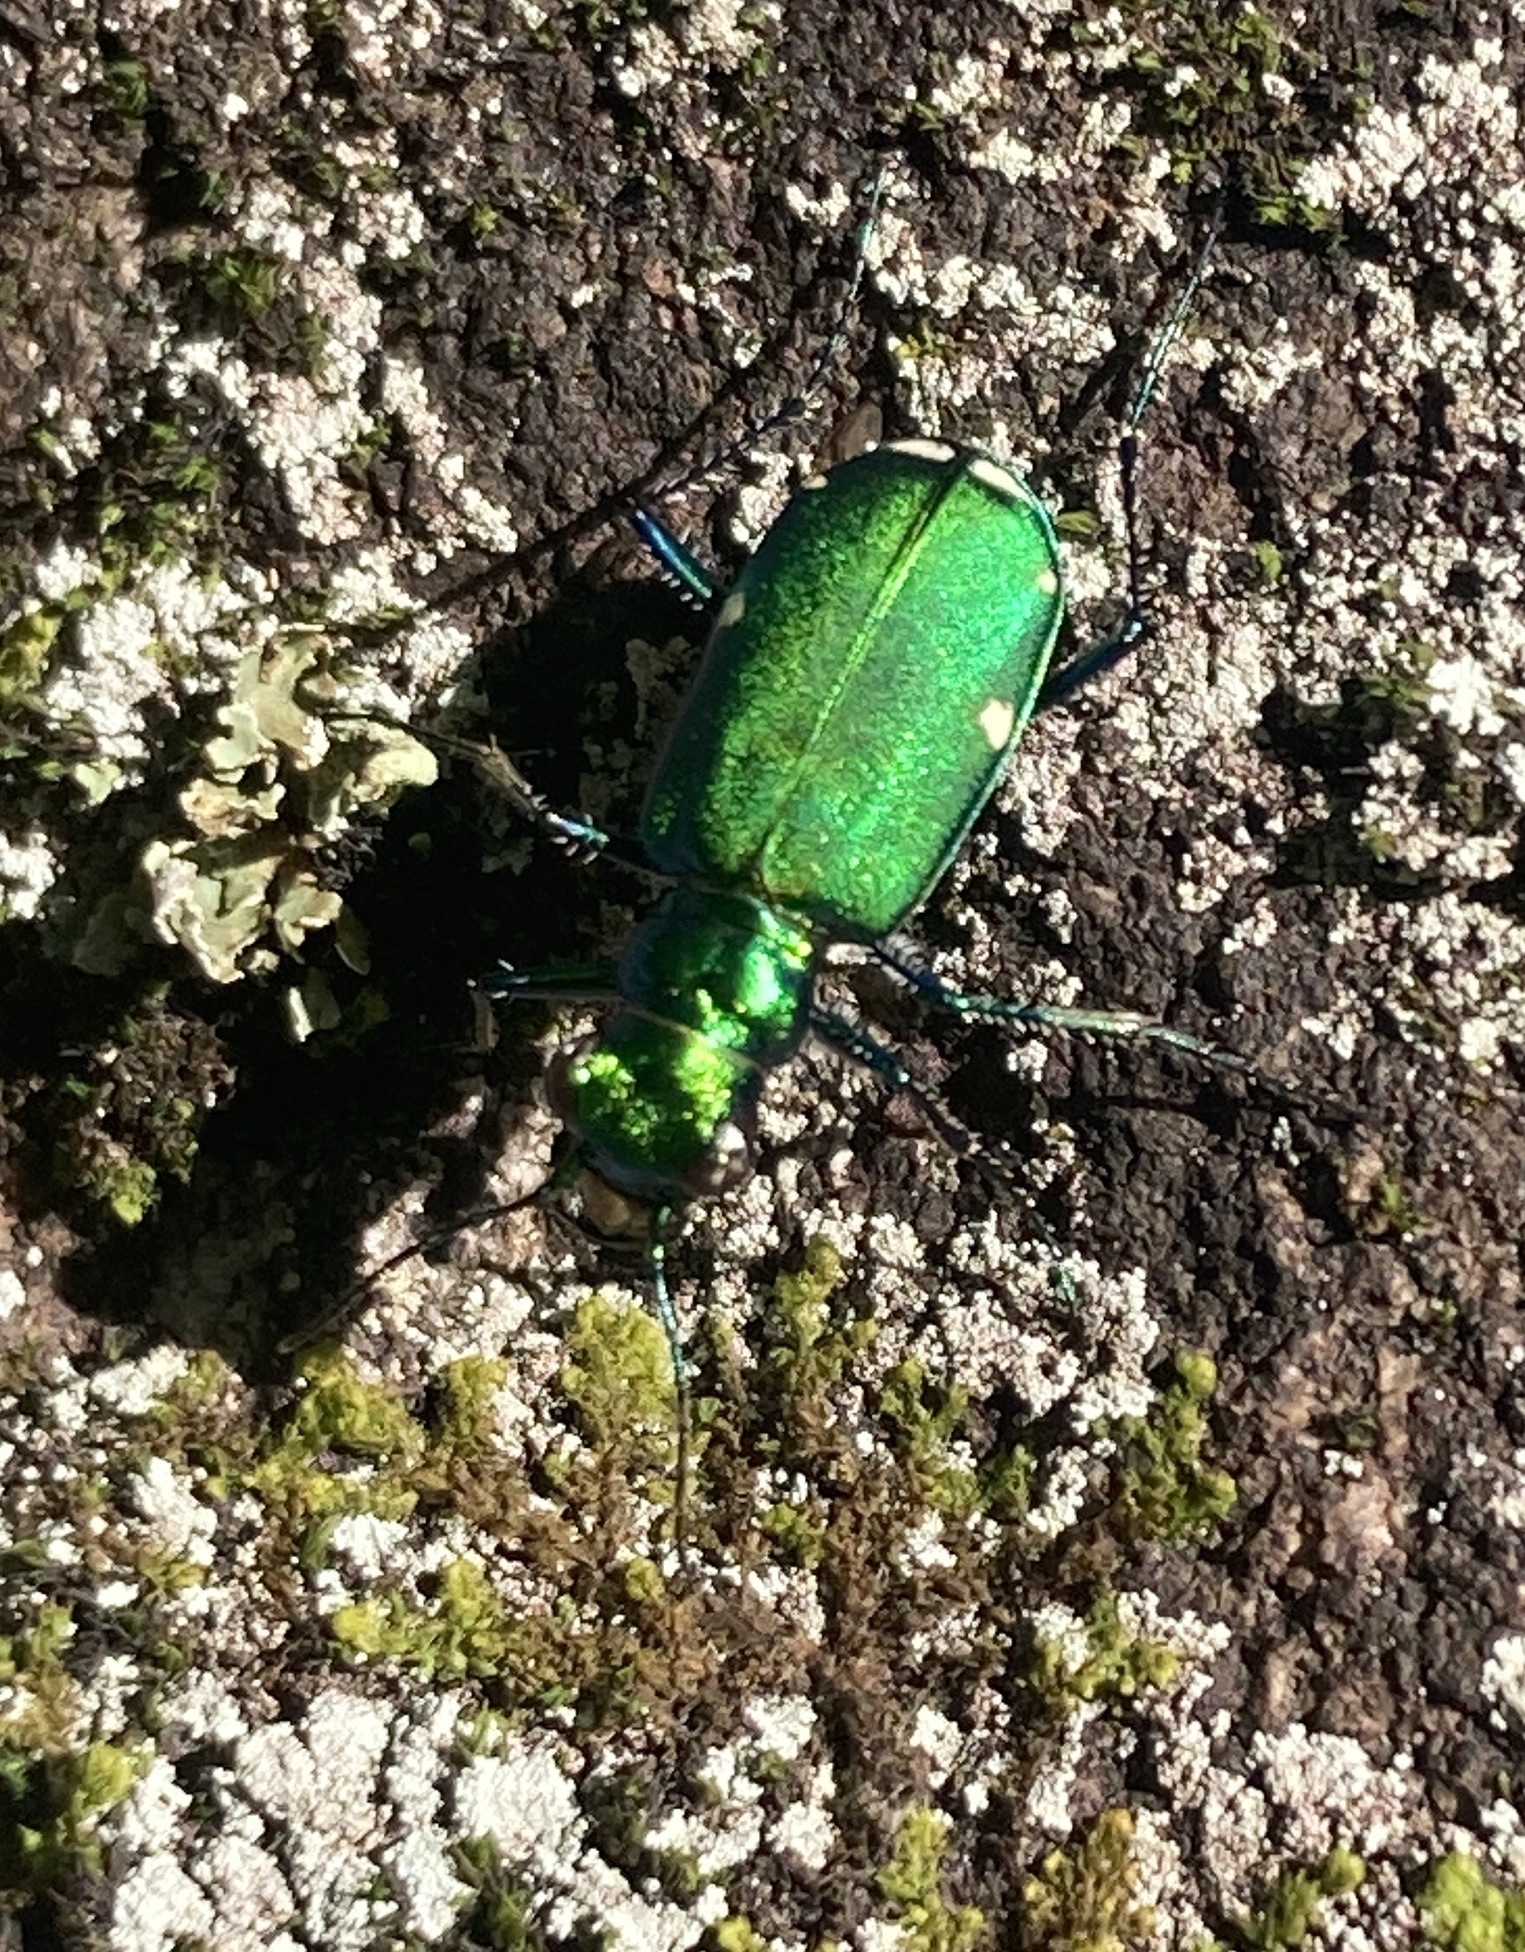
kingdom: Animalia
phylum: Arthropoda
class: Insecta
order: Coleoptera
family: Carabidae
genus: Cicindela
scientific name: Cicindela sexguttata
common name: Six-spotted tiger beetle
